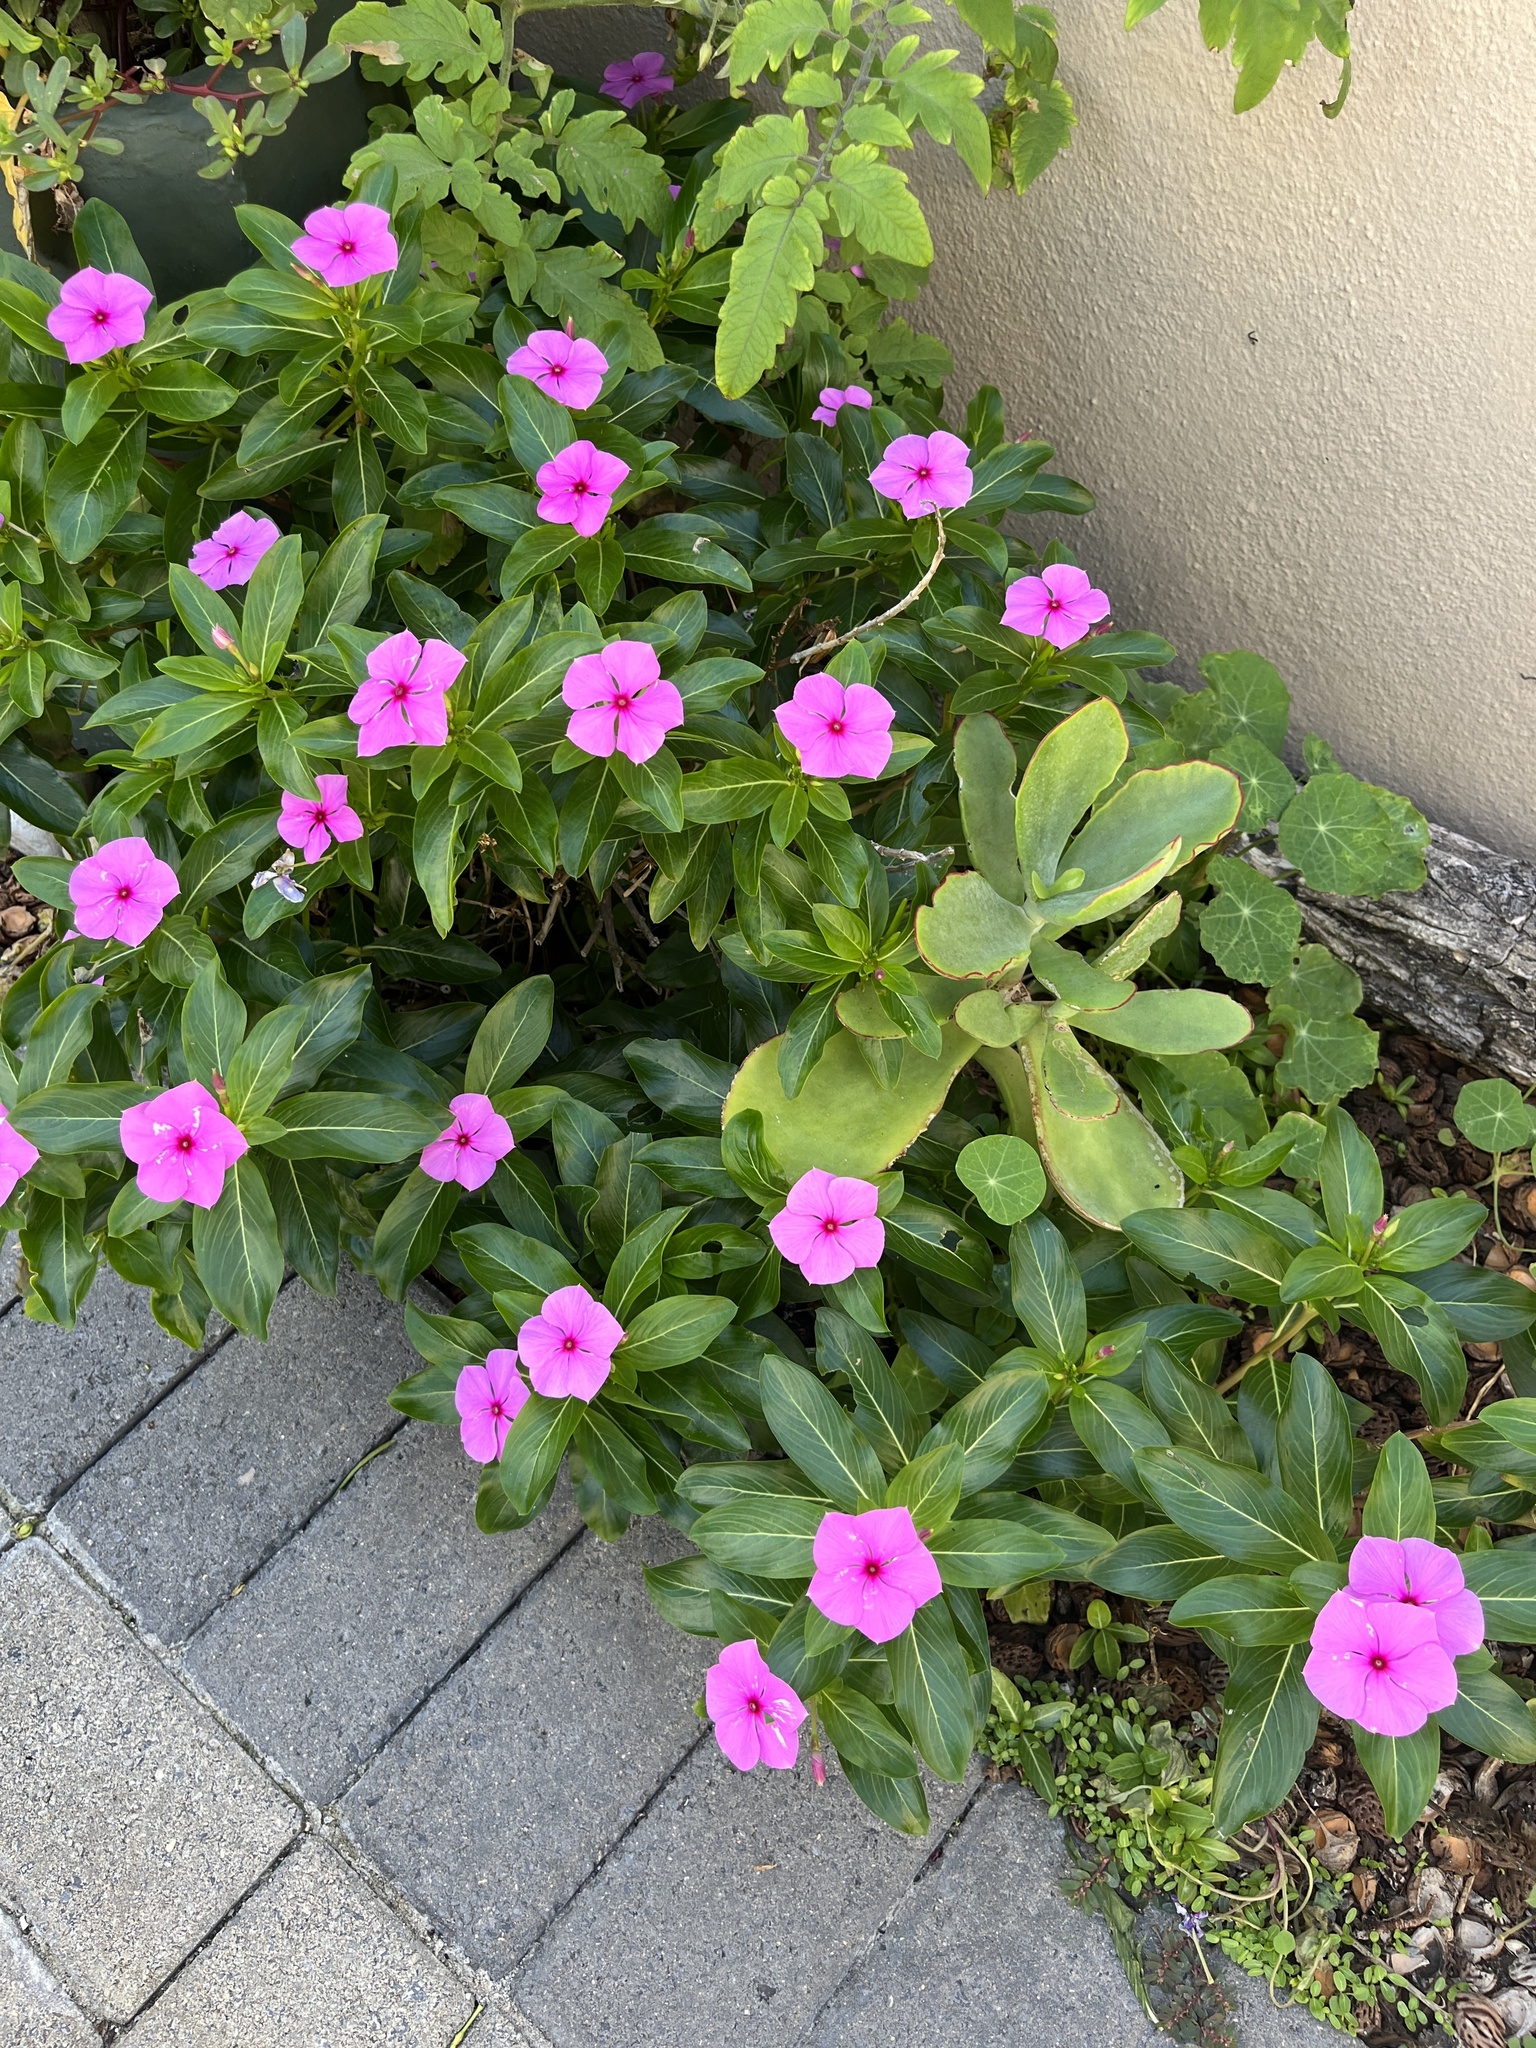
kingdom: Plantae
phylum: Tracheophyta
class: Magnoliopsida
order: Gentianales
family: Apocynaceae
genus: Catharanthus
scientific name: Catharanthus roseus
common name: Madagascar periwinkle
